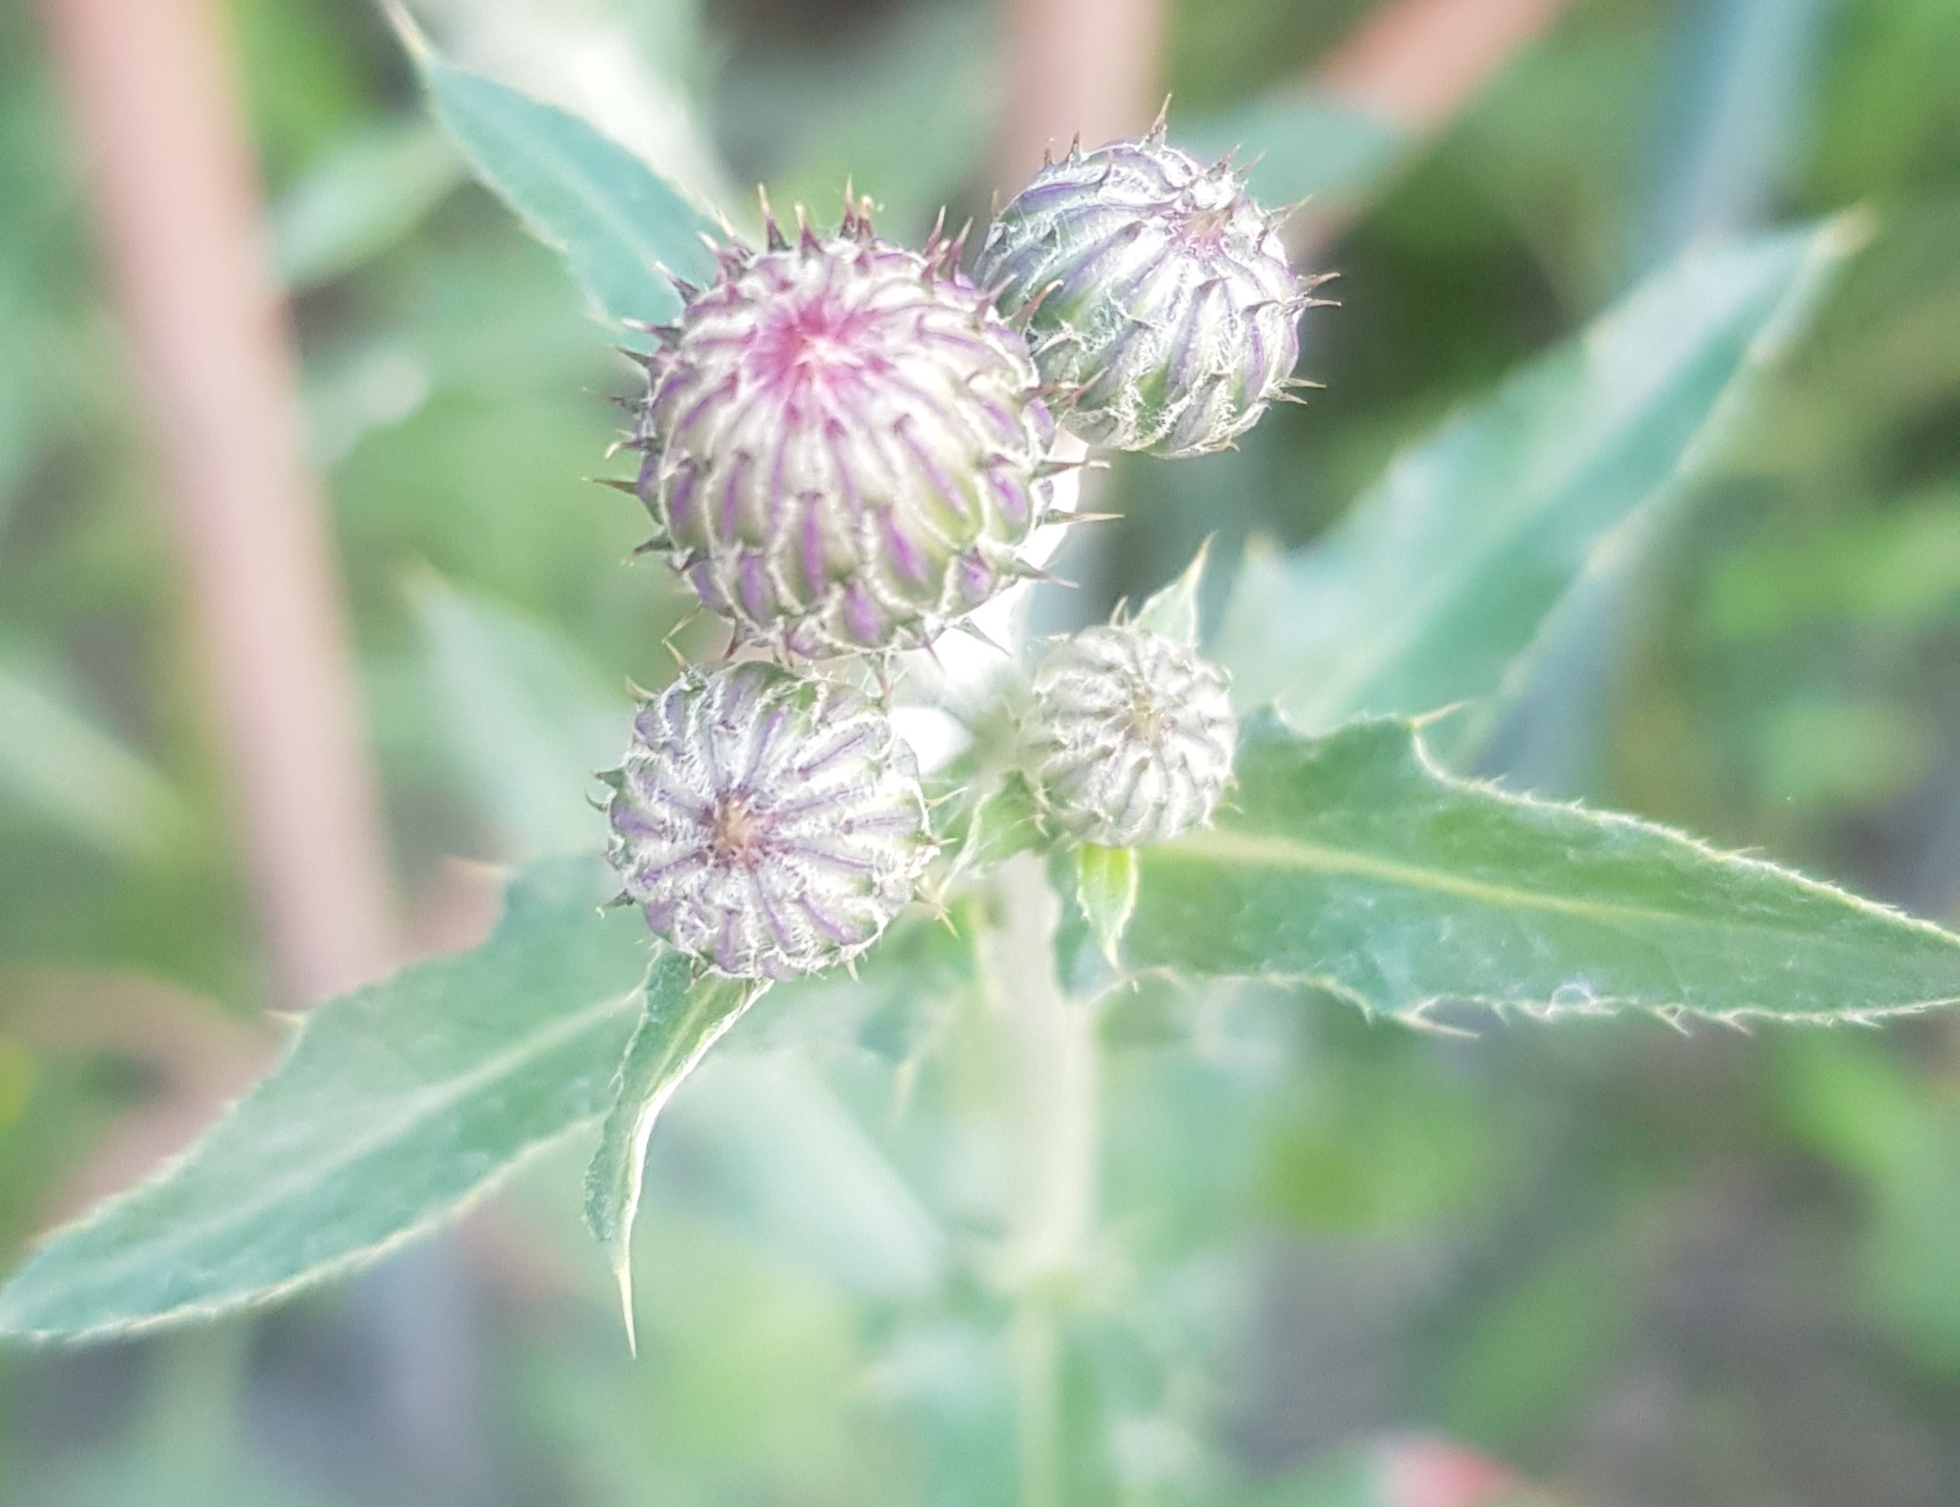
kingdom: Plantae
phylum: Tracheophyta
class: Magnoliopsida
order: Asterales
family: Asteraceae
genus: Cirsium
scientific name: Cirsium arvense
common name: Creeping thistle
